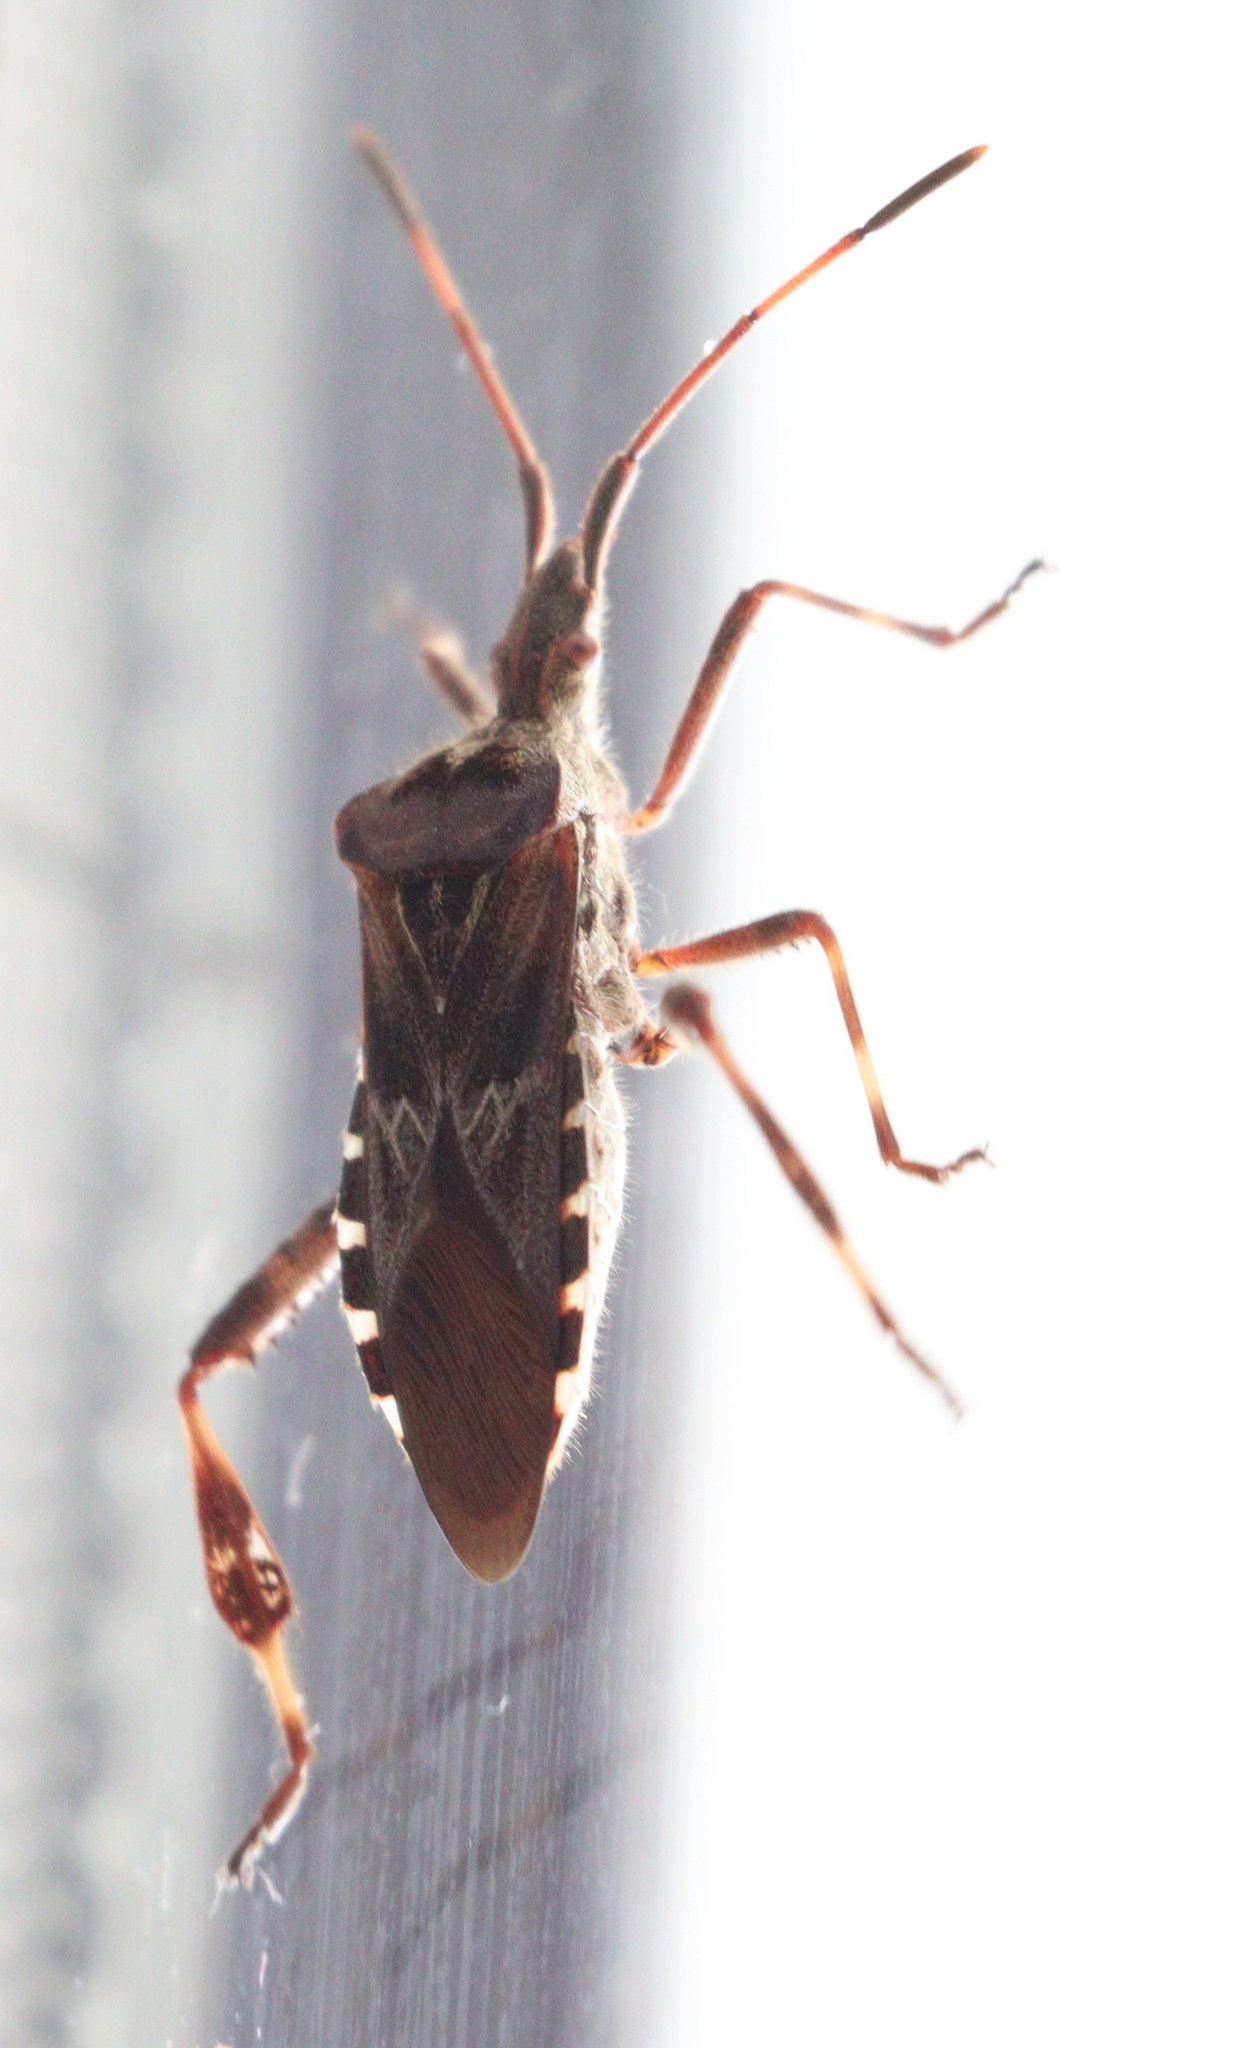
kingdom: Animalia
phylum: Arthropoda
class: Insecta
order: Hemiptera
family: Coreidae
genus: Leptoglossus
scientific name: Leptoglossus occidentalis
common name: Western conifer-seed bug
